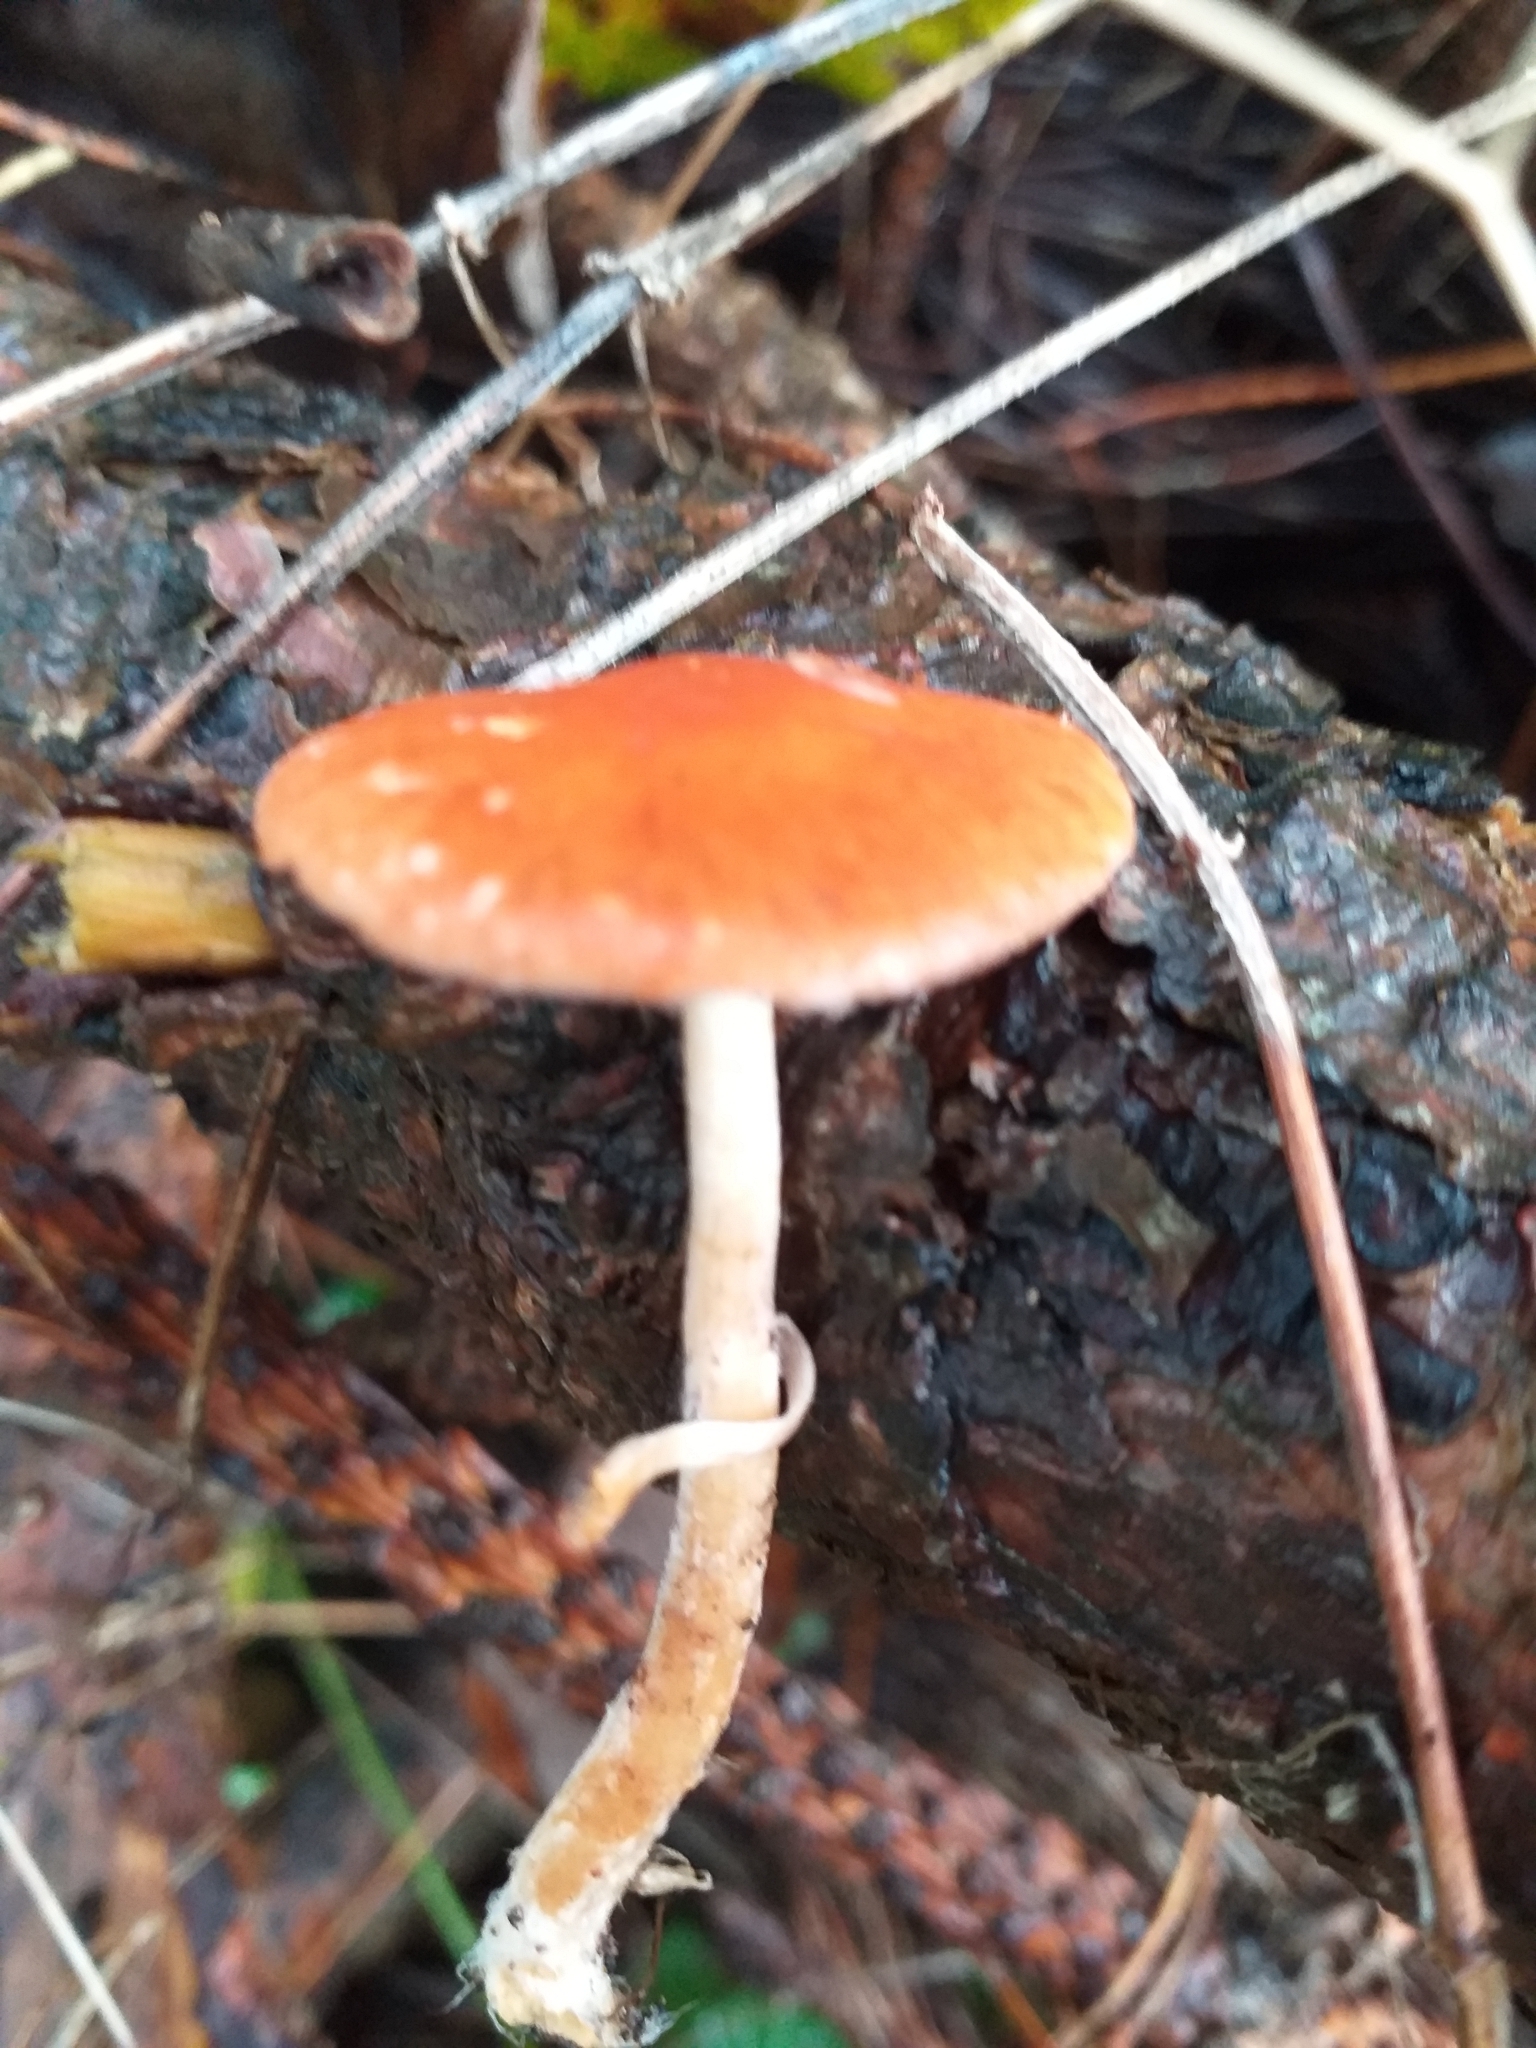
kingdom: Fungi
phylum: Basidiomycota
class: Agaricomycetes
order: Agaricales
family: Strophariaceae
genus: Leratiomyces
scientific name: Leratiomyces ceres
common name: Redlead roundhead
